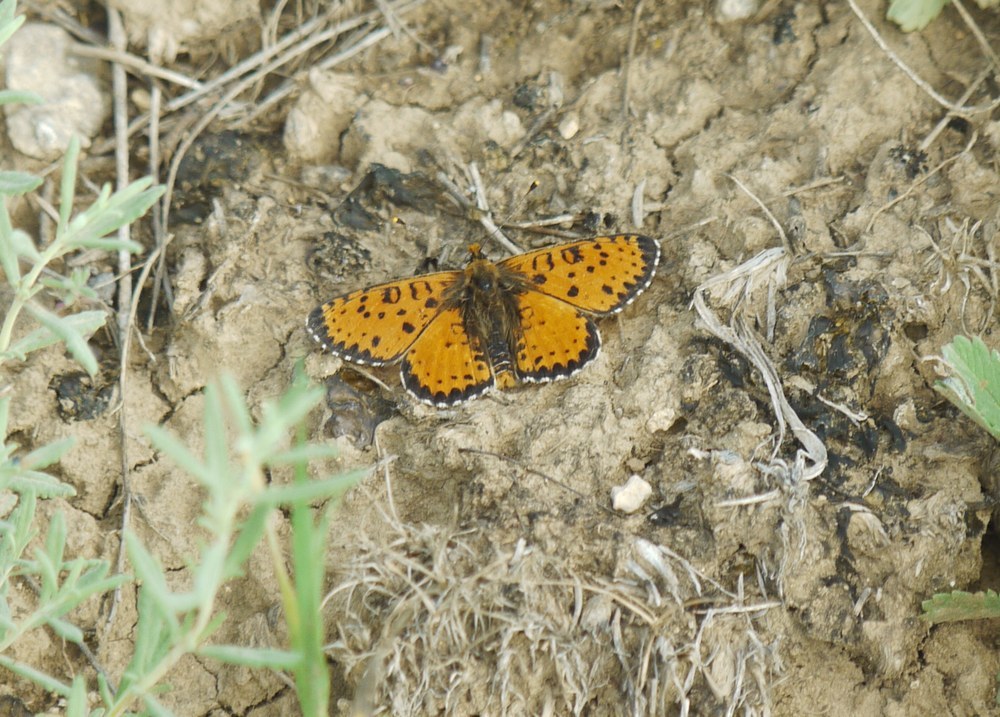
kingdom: Animalia
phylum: Arthropoda
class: Insecta
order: Lepidoptera
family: Nymphalidae
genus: Melitaea
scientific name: Melitaea didyma
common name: Spotted fritillary
